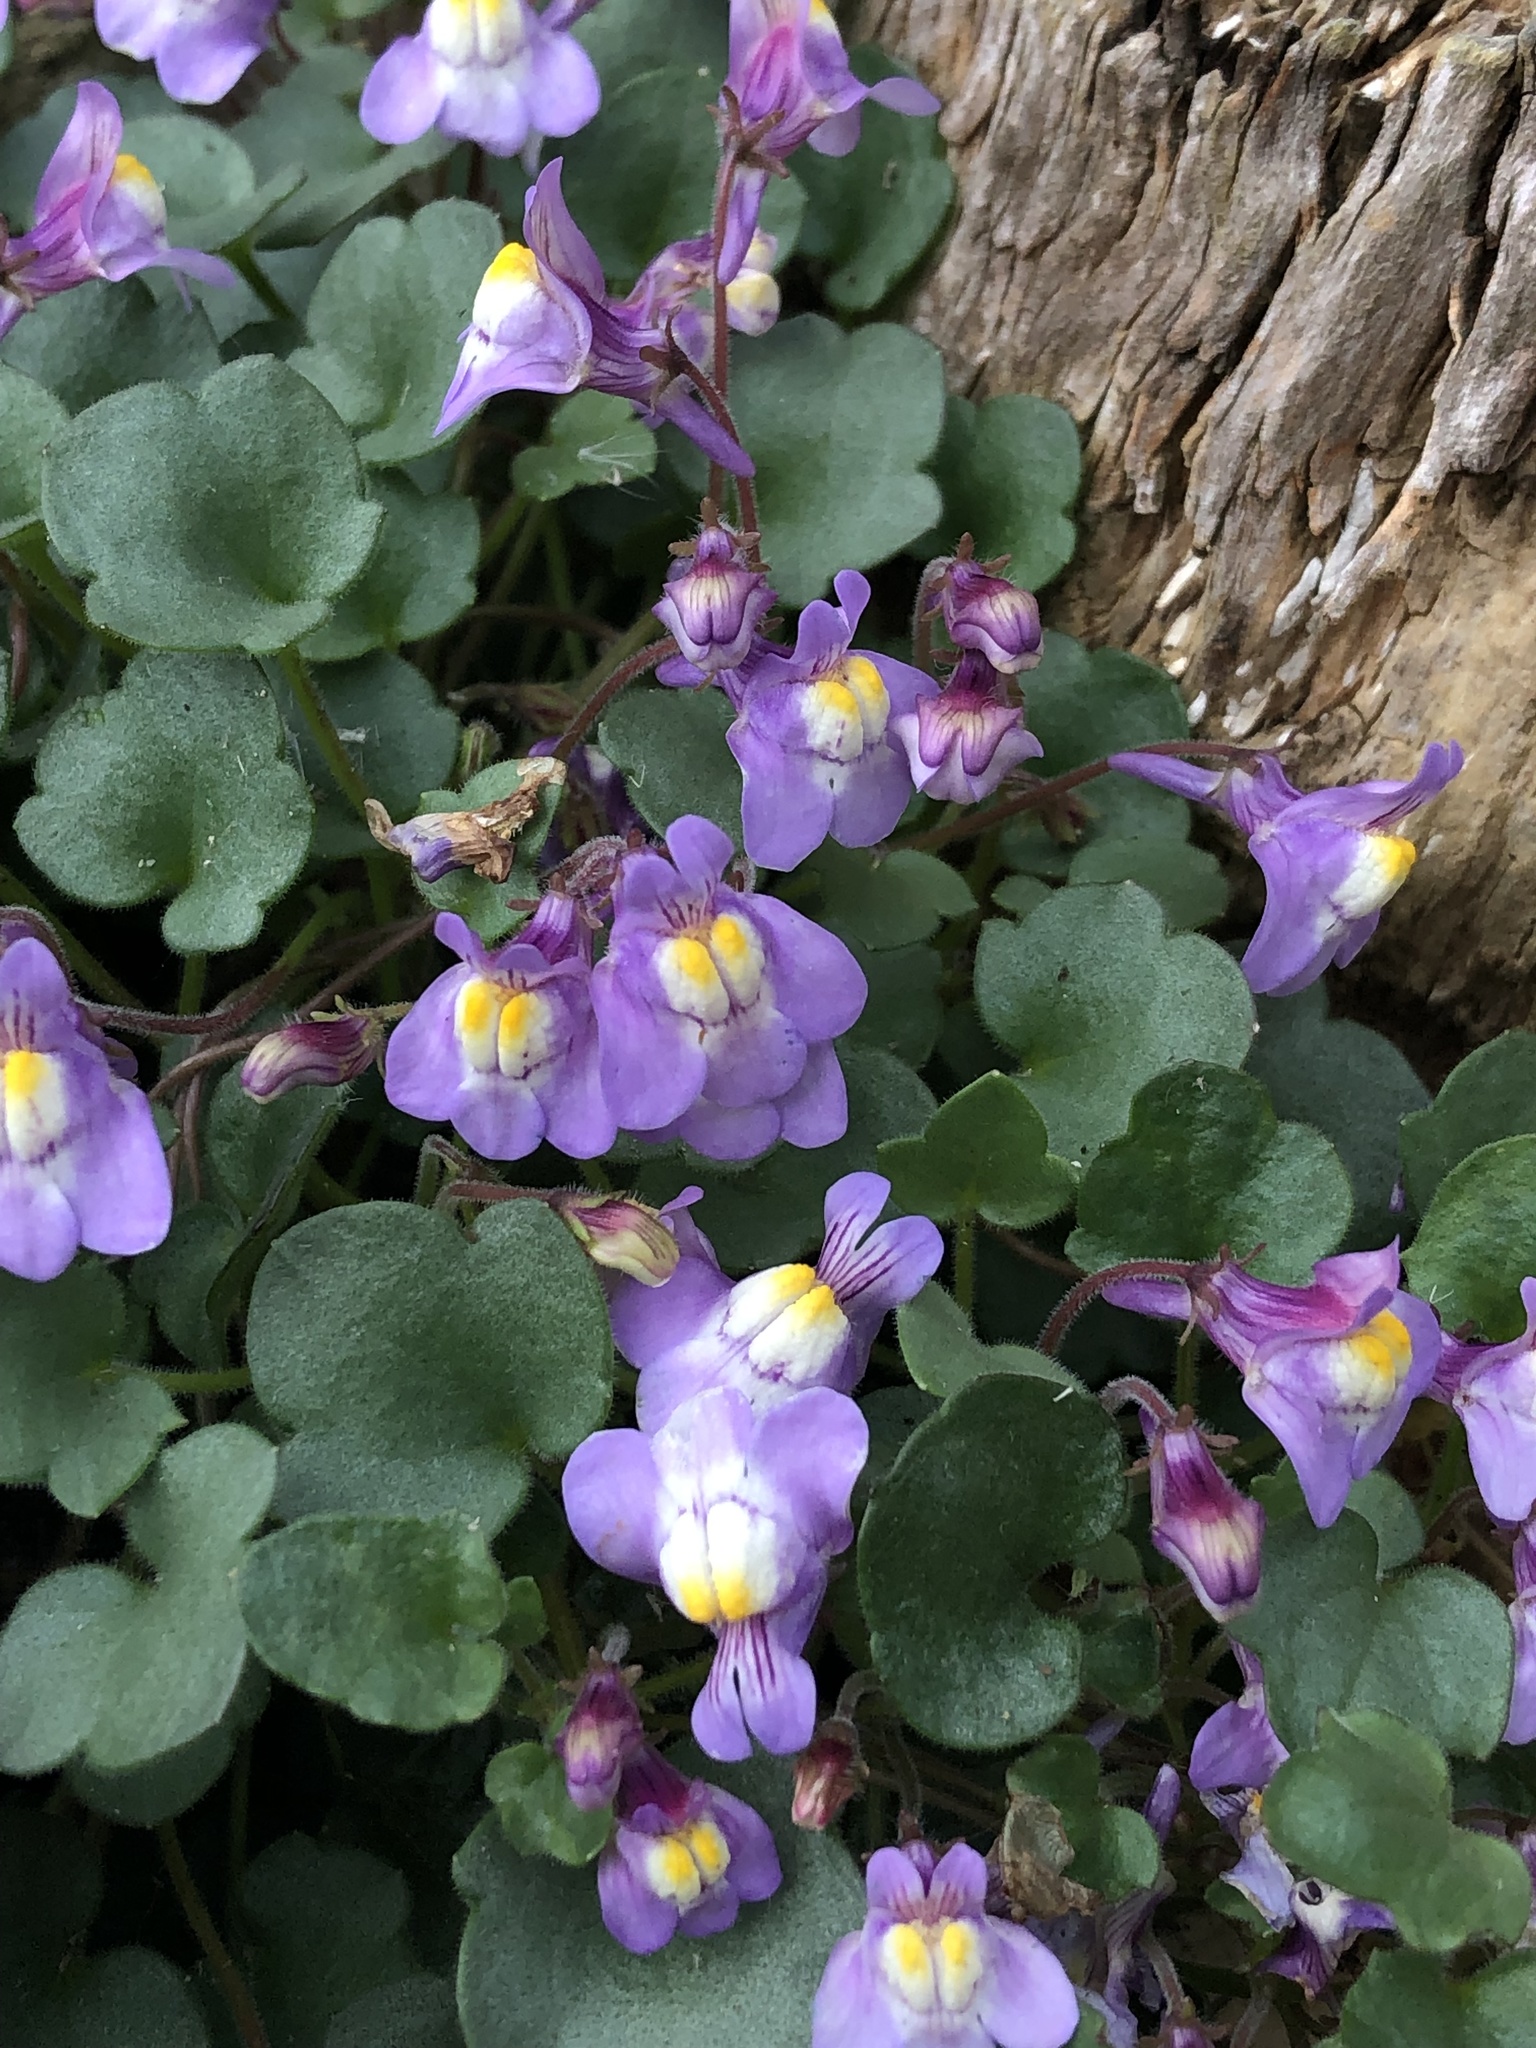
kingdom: Plantae
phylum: Tracheophyta
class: Magnoliopsida
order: Lamiales
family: Plantaginaceae
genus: Cymbalaria
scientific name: Cymbalaria pallida
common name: Italian toadflax
